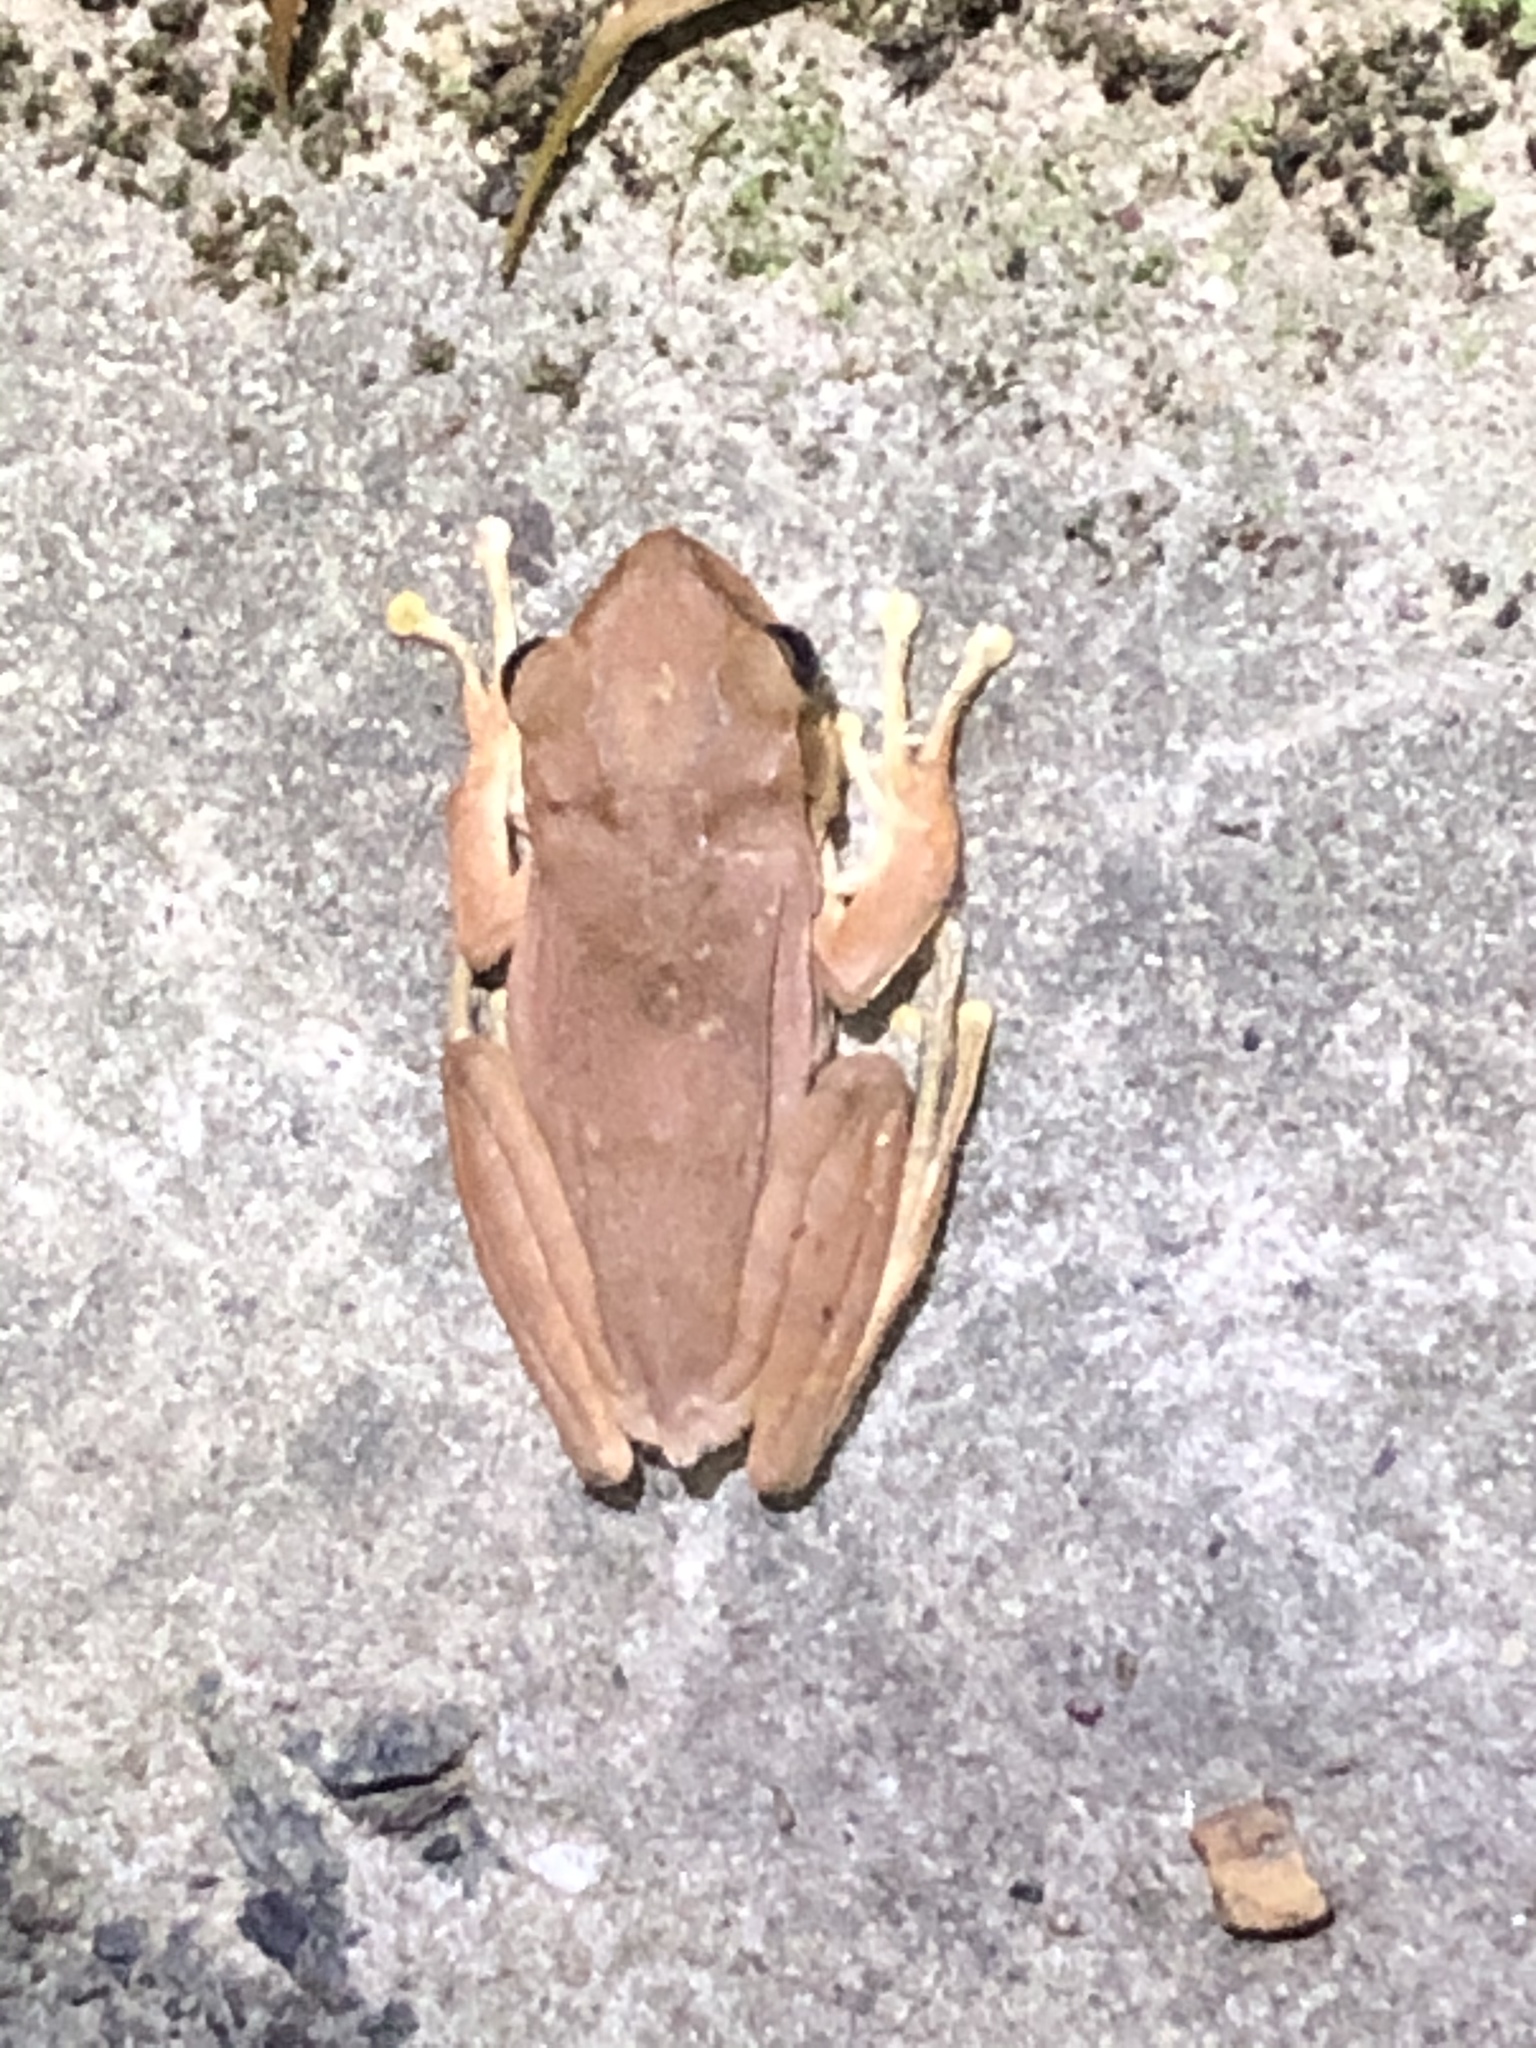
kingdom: Animalia
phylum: Chordata
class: Amphibia
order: Anura
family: Rhacophoridae
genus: Polypedates
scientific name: Polypedates megacephalus
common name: Hong kong whipping frog
